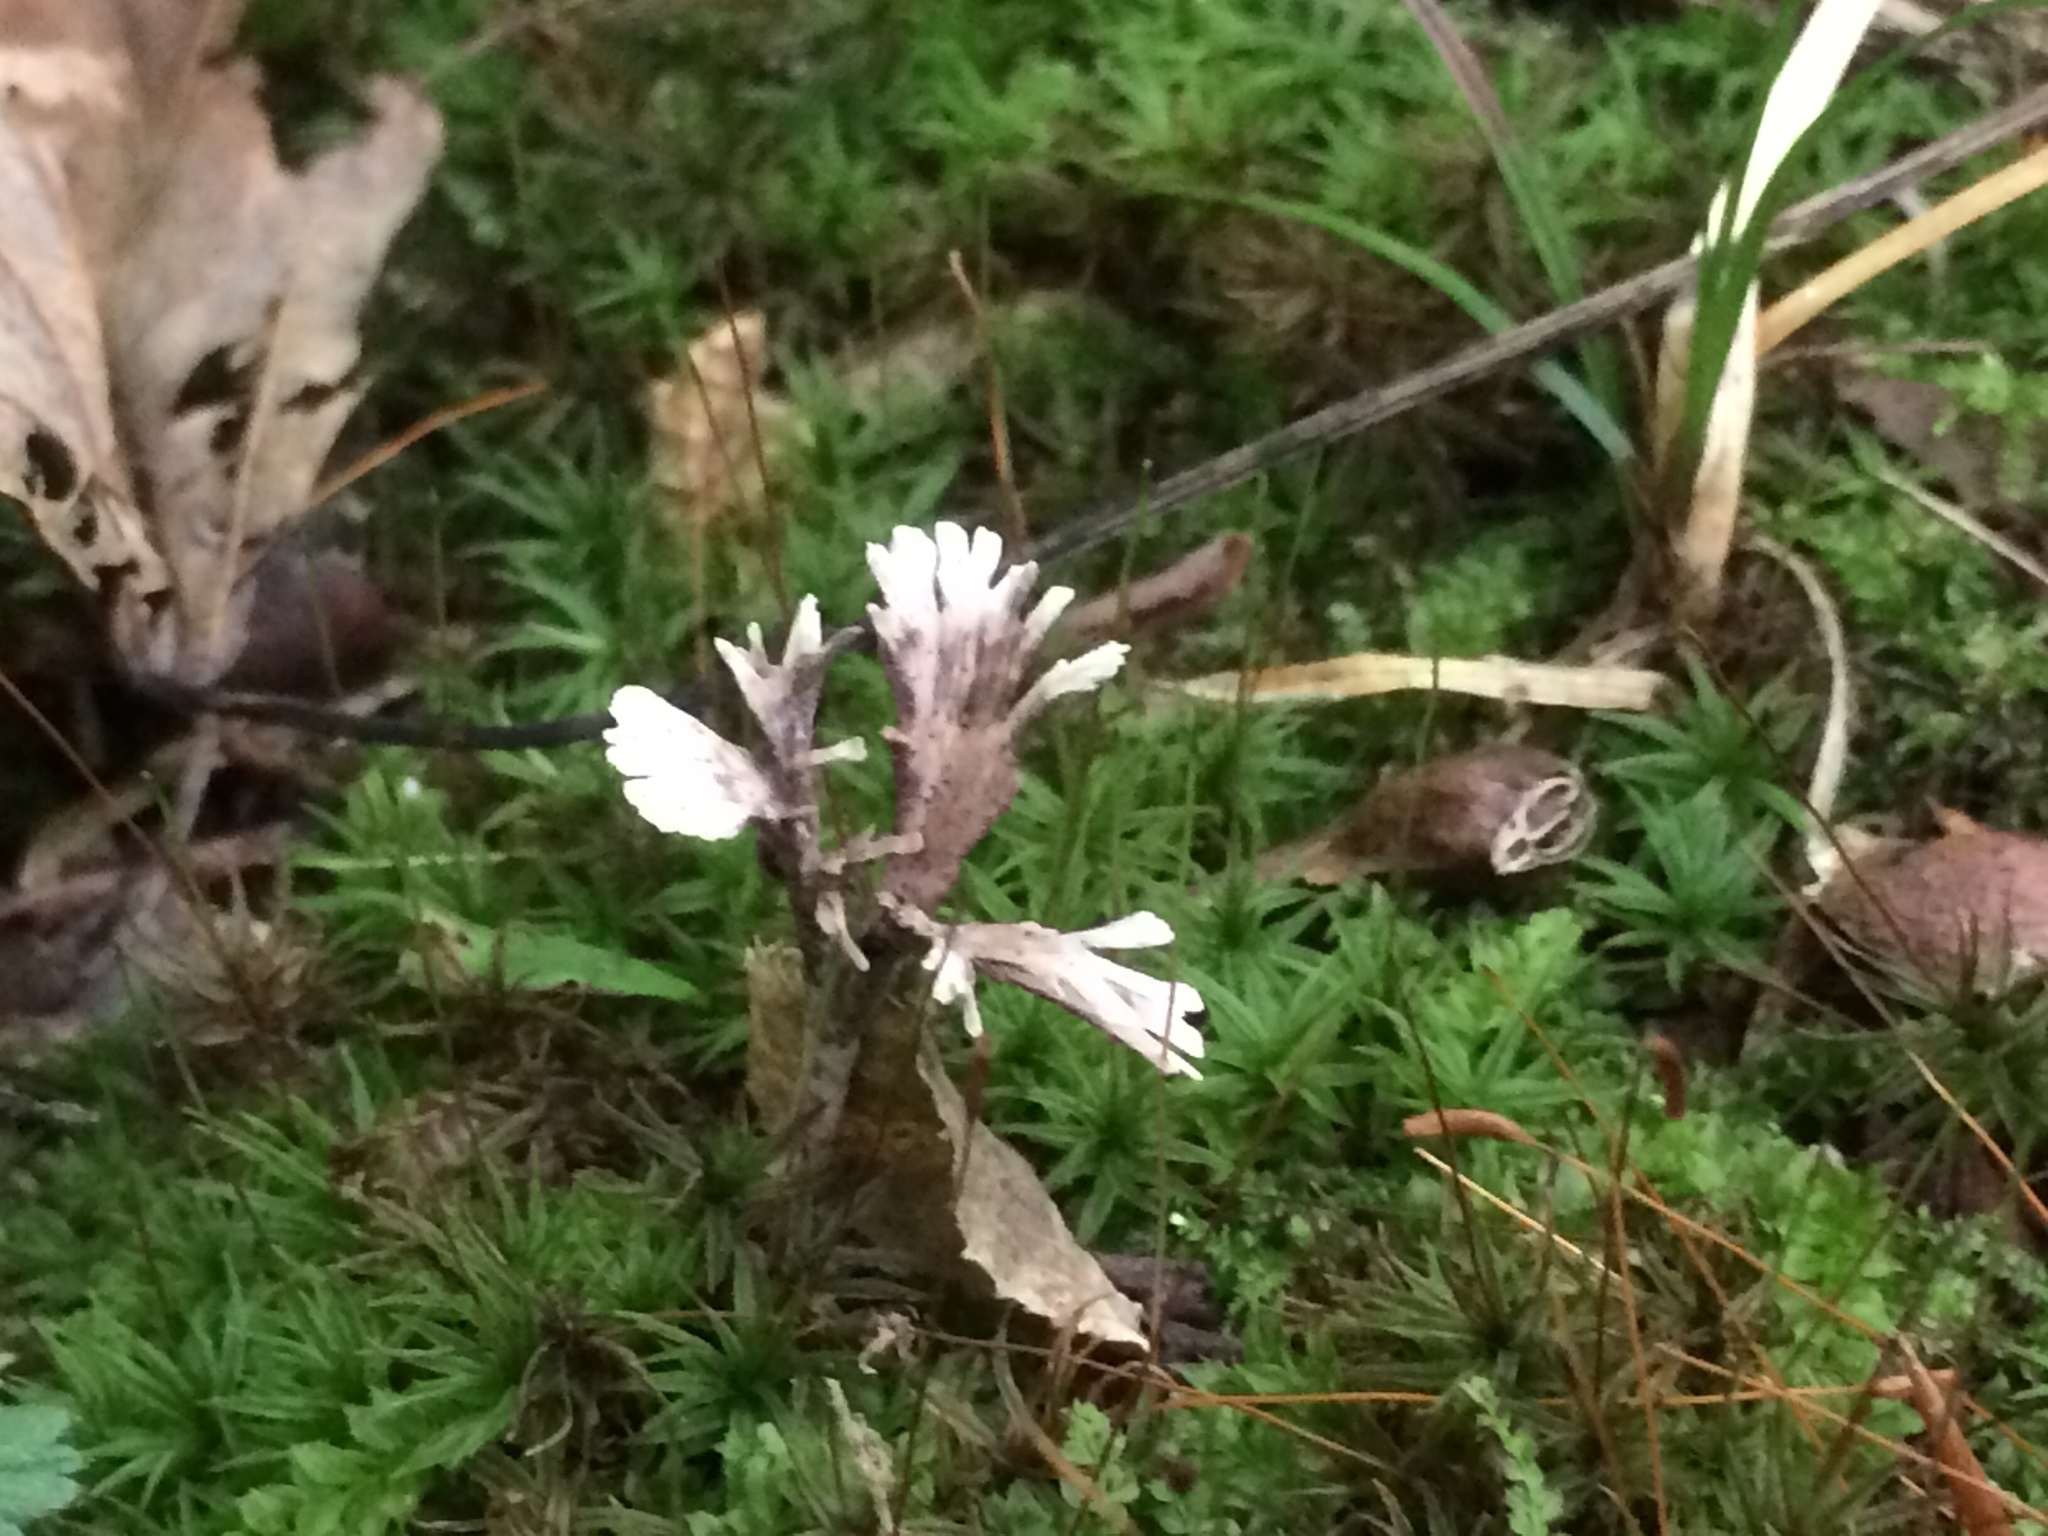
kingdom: Fungi
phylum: Basidiomycota
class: Agaricomycetes
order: Thelephorales
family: Thelephoraceae
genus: Thelephora
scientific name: Thelephora multipartita
